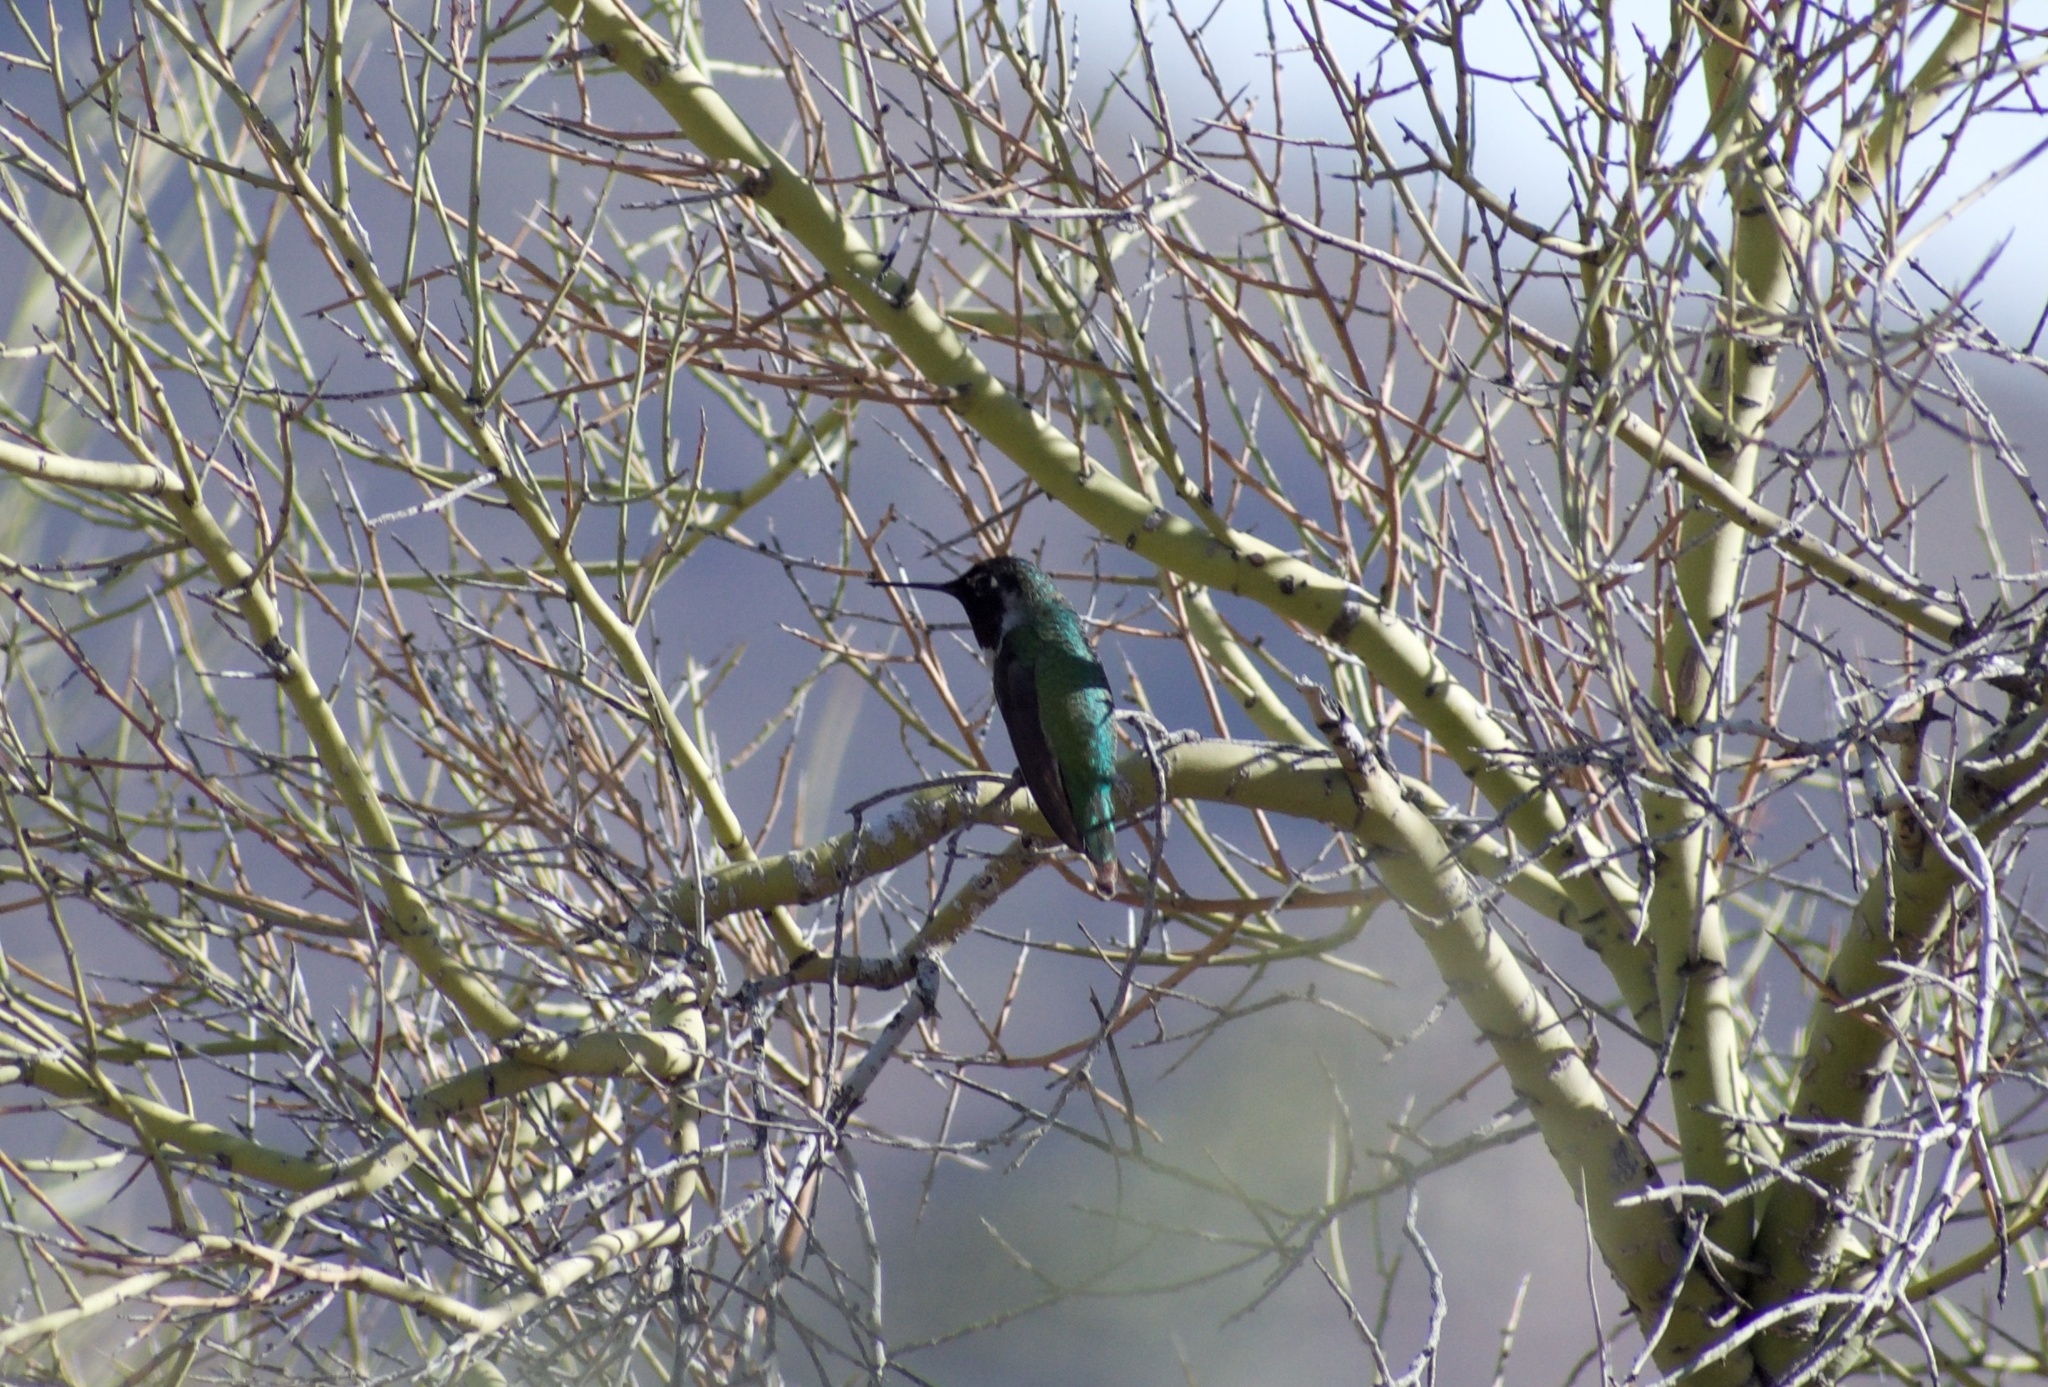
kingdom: Animalia
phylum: Chordata
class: Aves
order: Apodiformes
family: Trochilidae
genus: Calypte
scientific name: Calypte anna
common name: Anna's hummingbird
